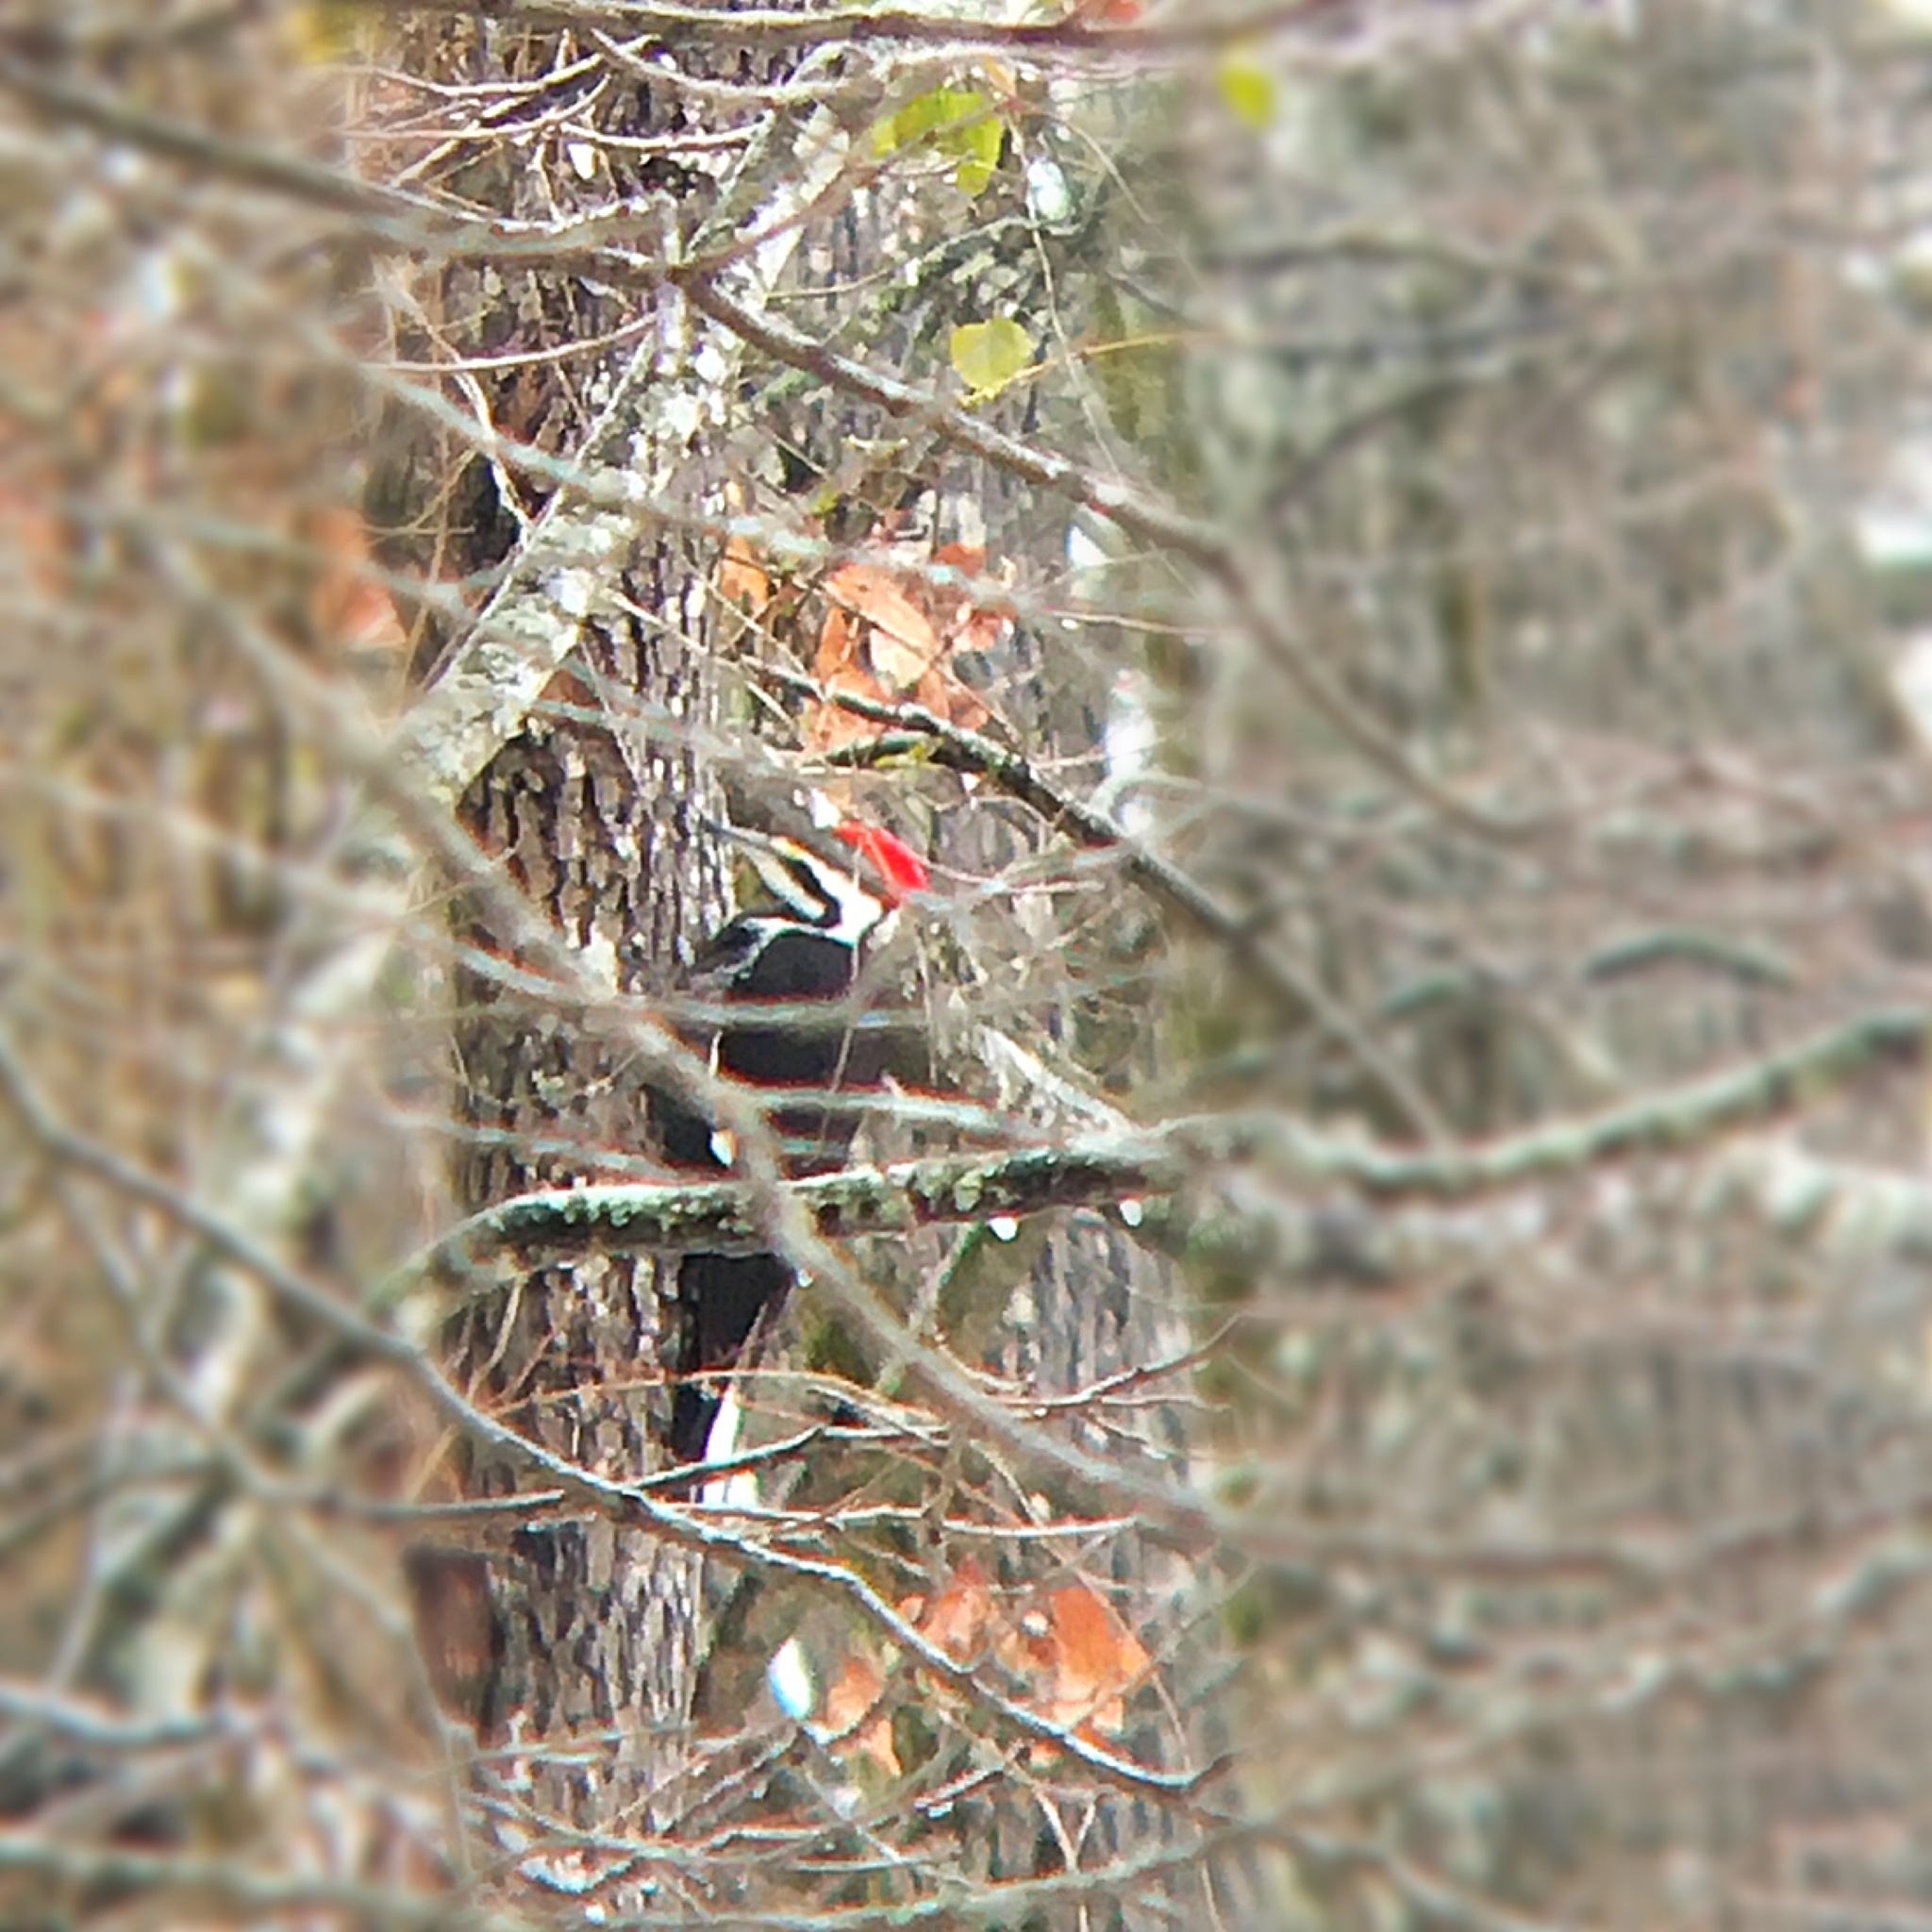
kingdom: Animalia
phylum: Chordata
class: Aves
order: Piciformes
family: Picidae
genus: Dryocopus
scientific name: Dryocopus pileatus
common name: Pileated woodpecker
